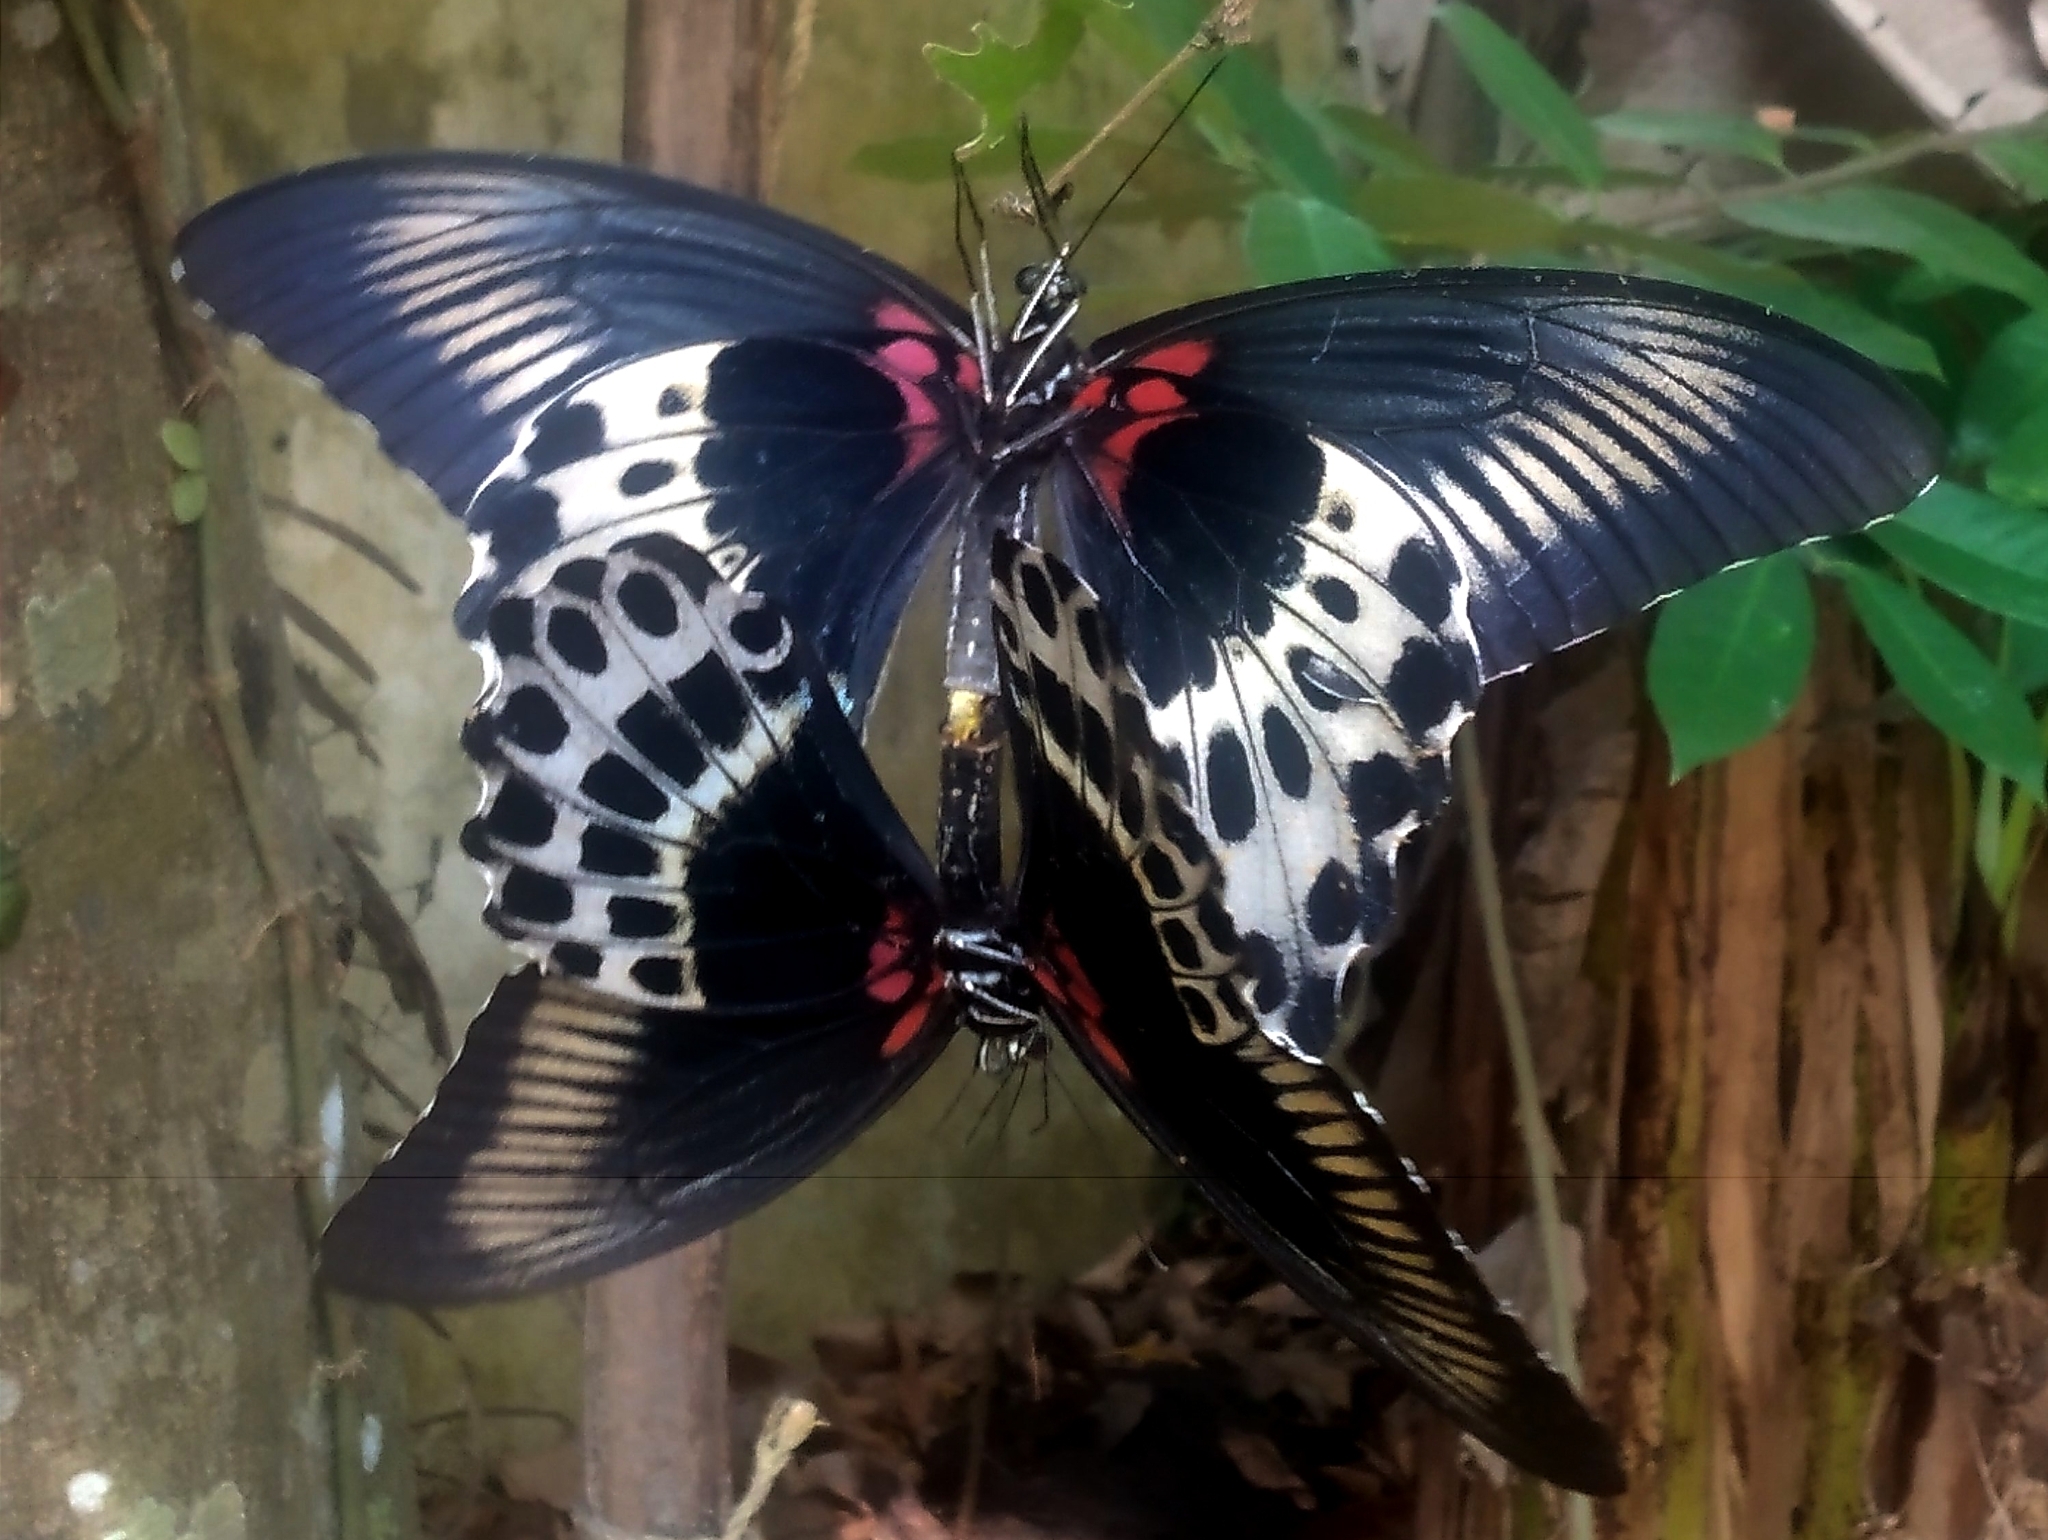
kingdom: Animalia
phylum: Arthropoda
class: Insecta
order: Lepidoptera
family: Papilionidae
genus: Papilio
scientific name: Papilio memnon
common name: Great mormon
